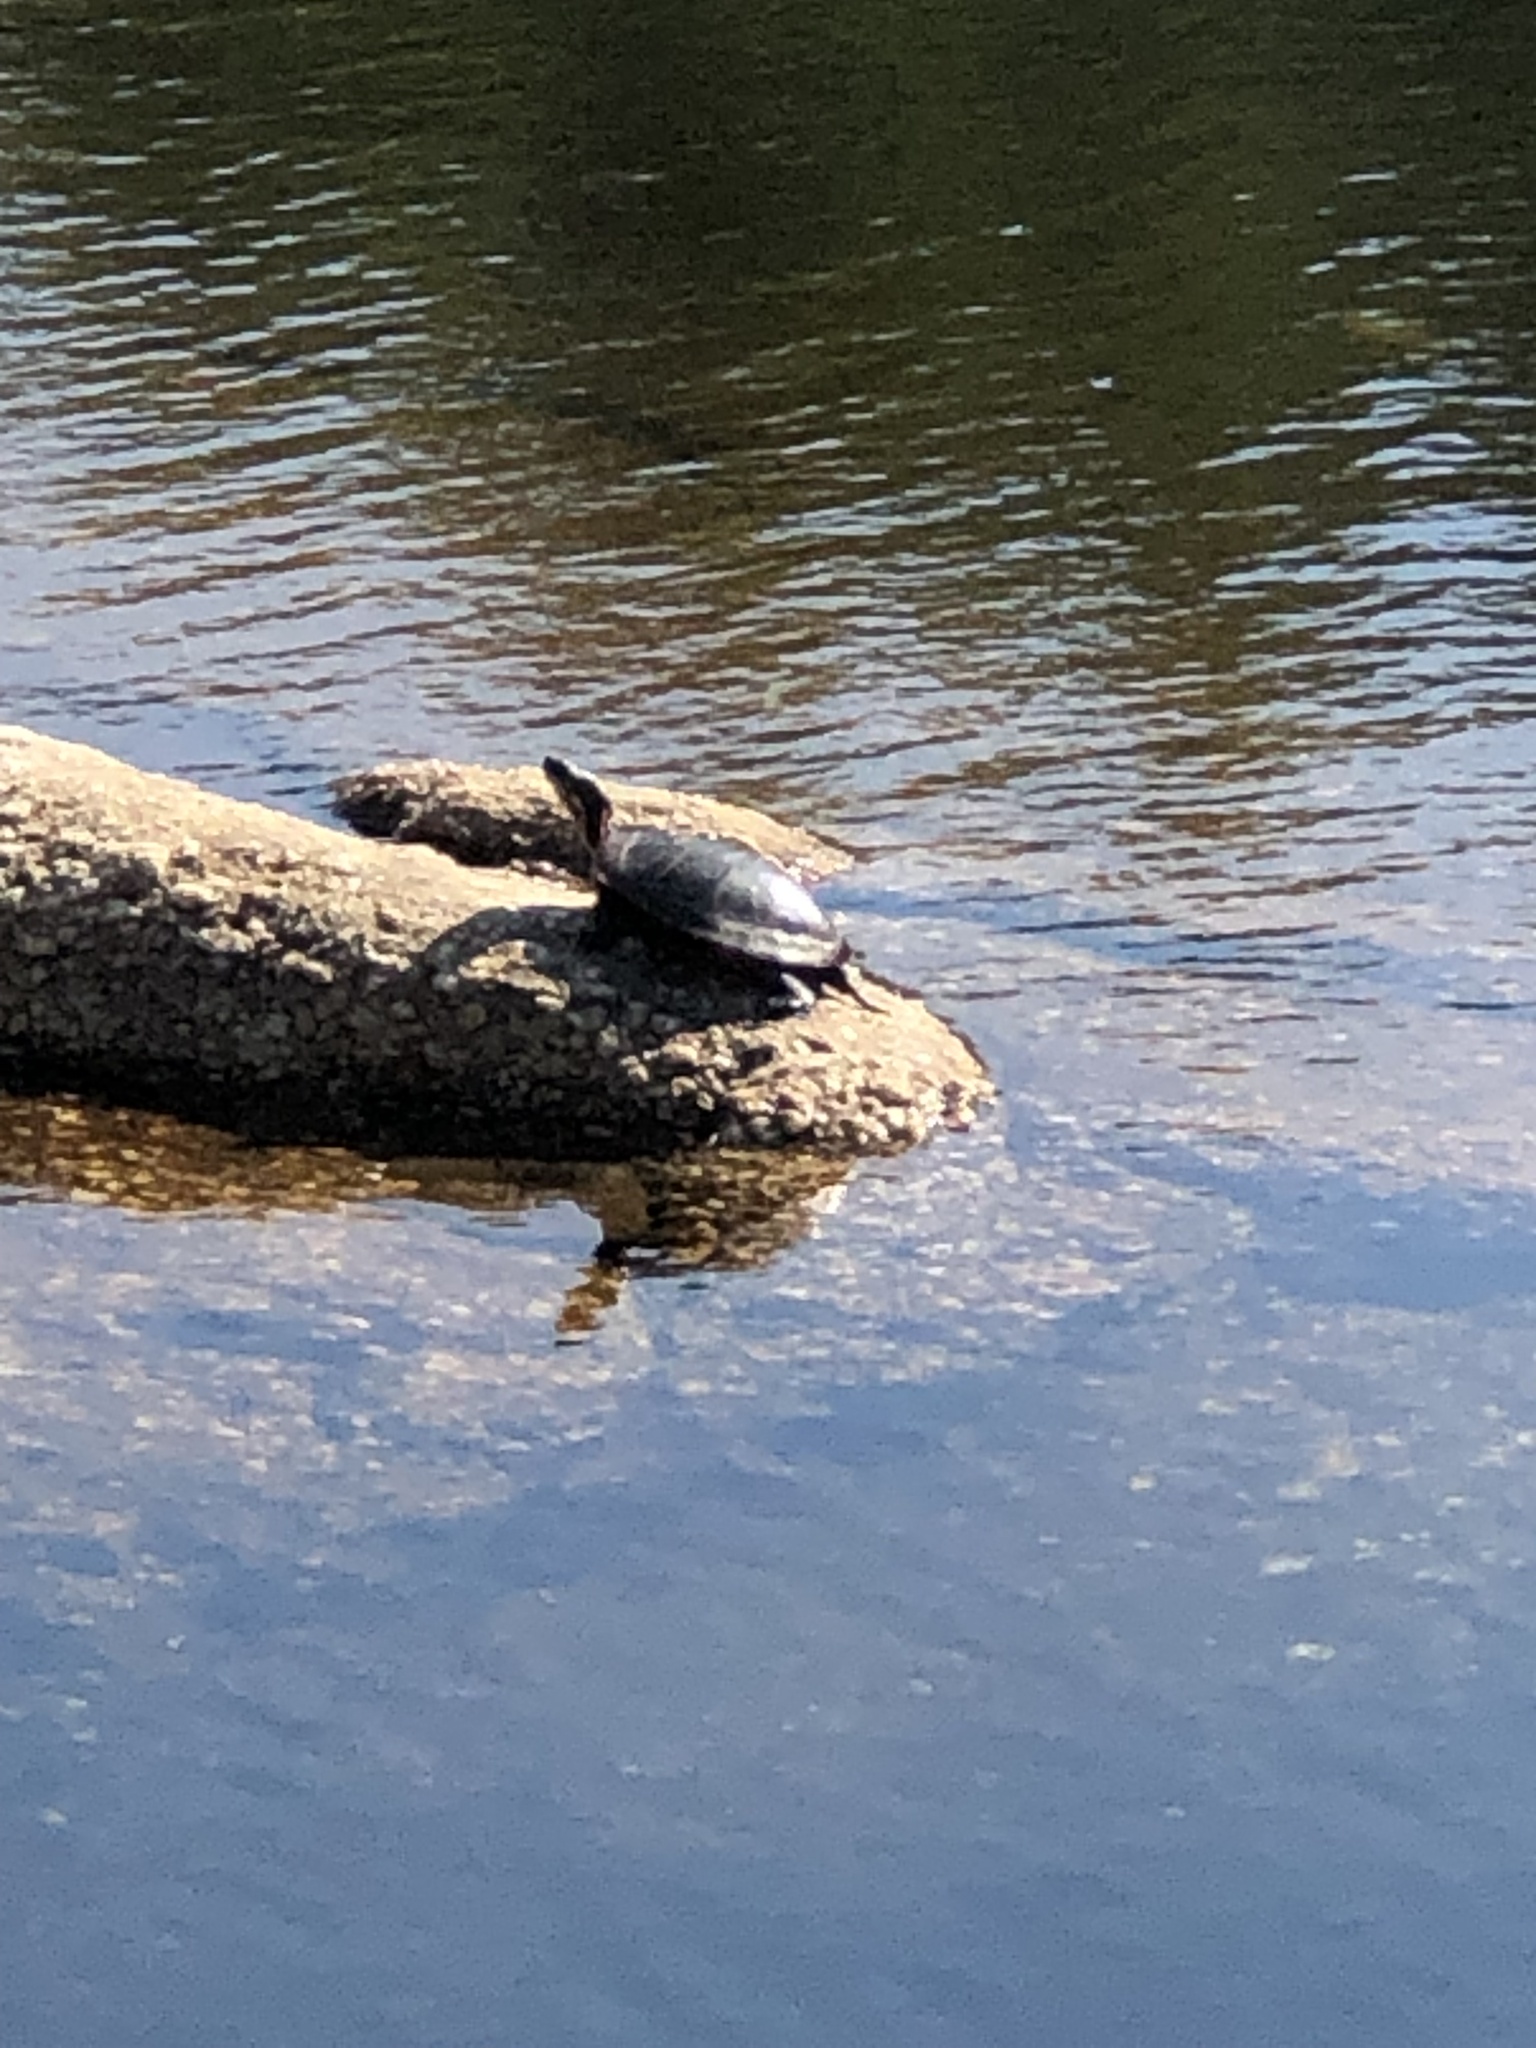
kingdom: Animalia
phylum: Chordata
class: Testudines
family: Emydidae
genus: Chrysemys
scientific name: Chrysemys picta
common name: Painted turtle
